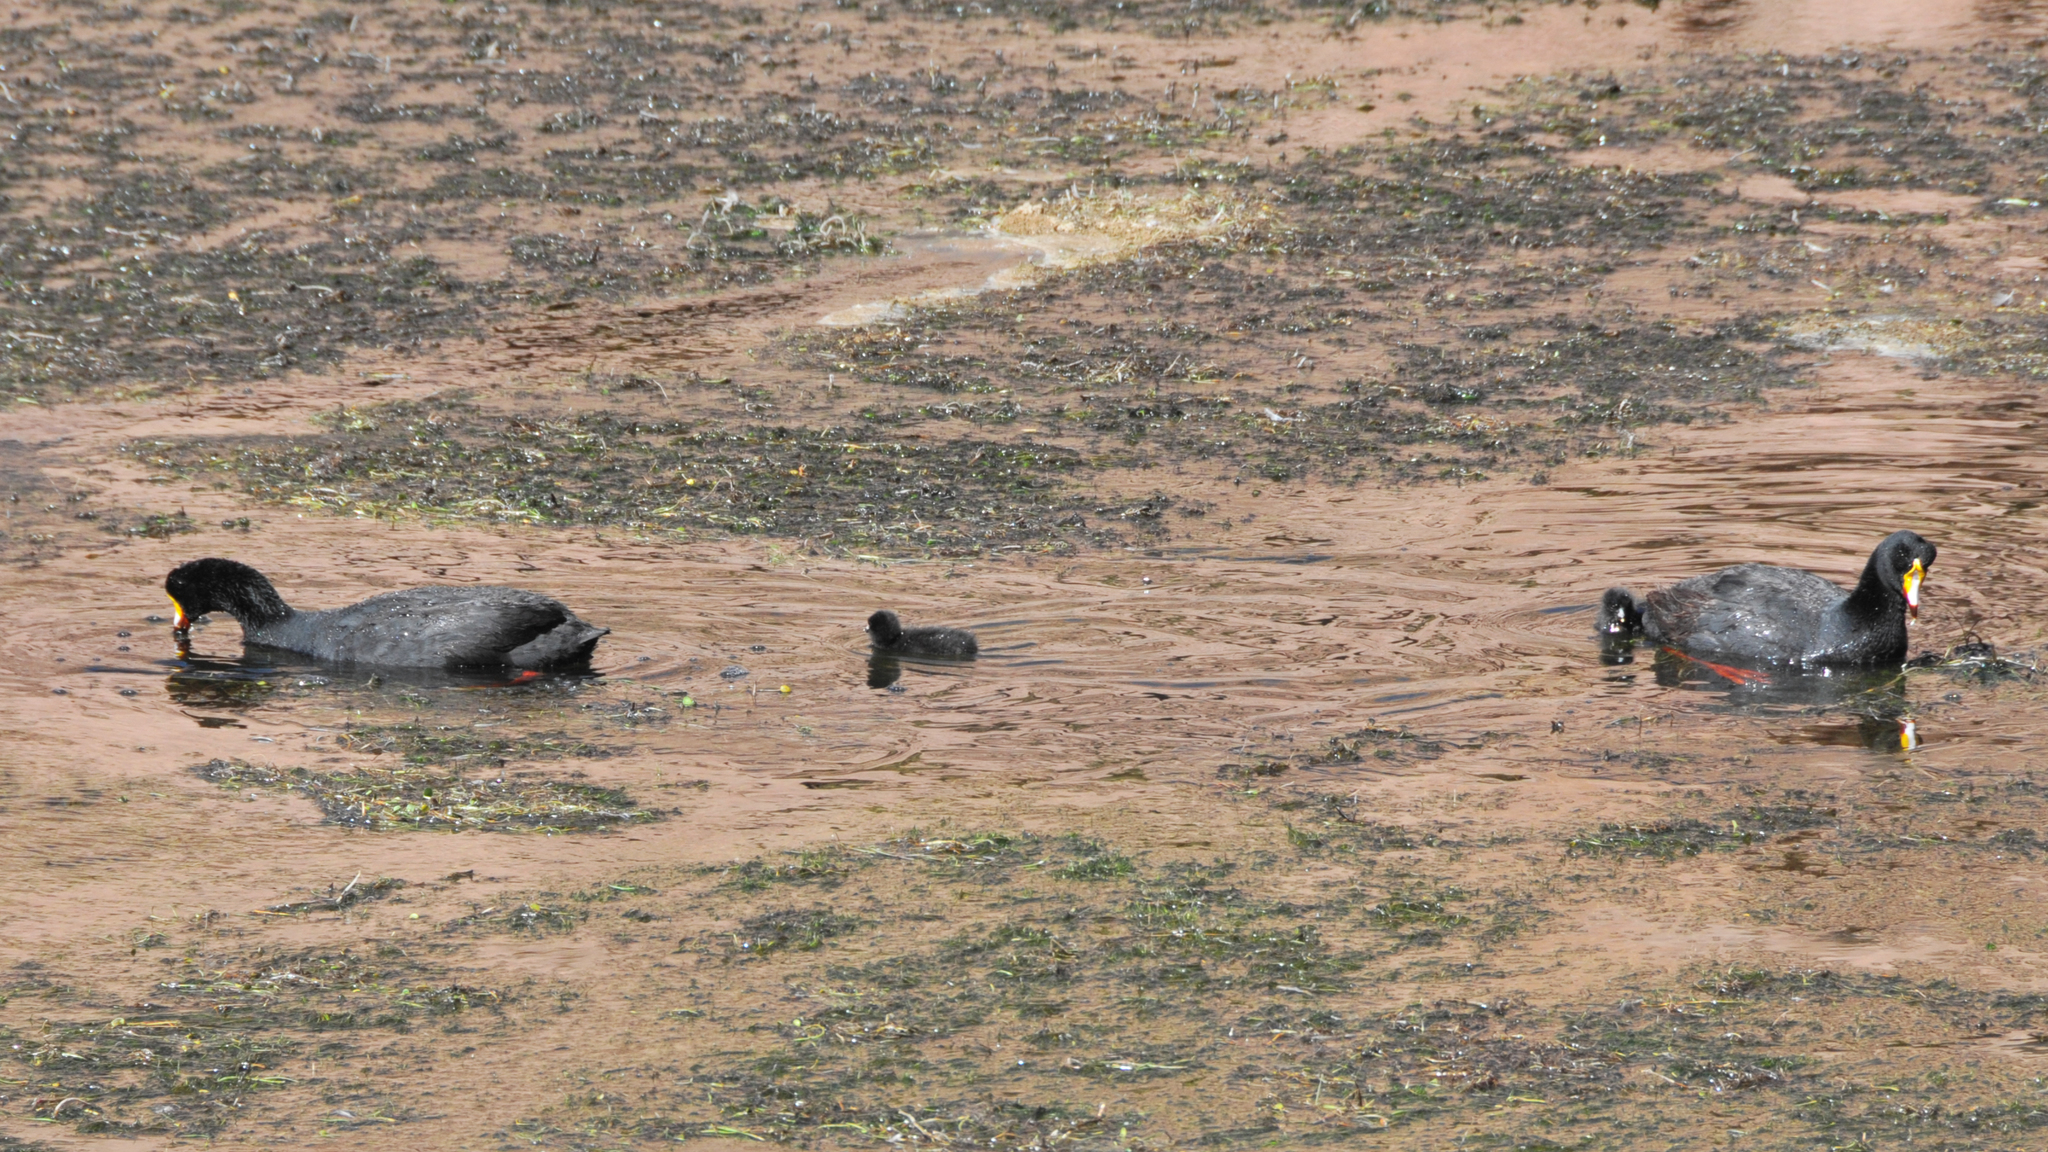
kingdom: Animalia
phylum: Chordata
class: Aves
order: Gruiformes
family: Rallidae
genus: Fulica
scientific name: Fulica gigantea
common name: Giant coot
